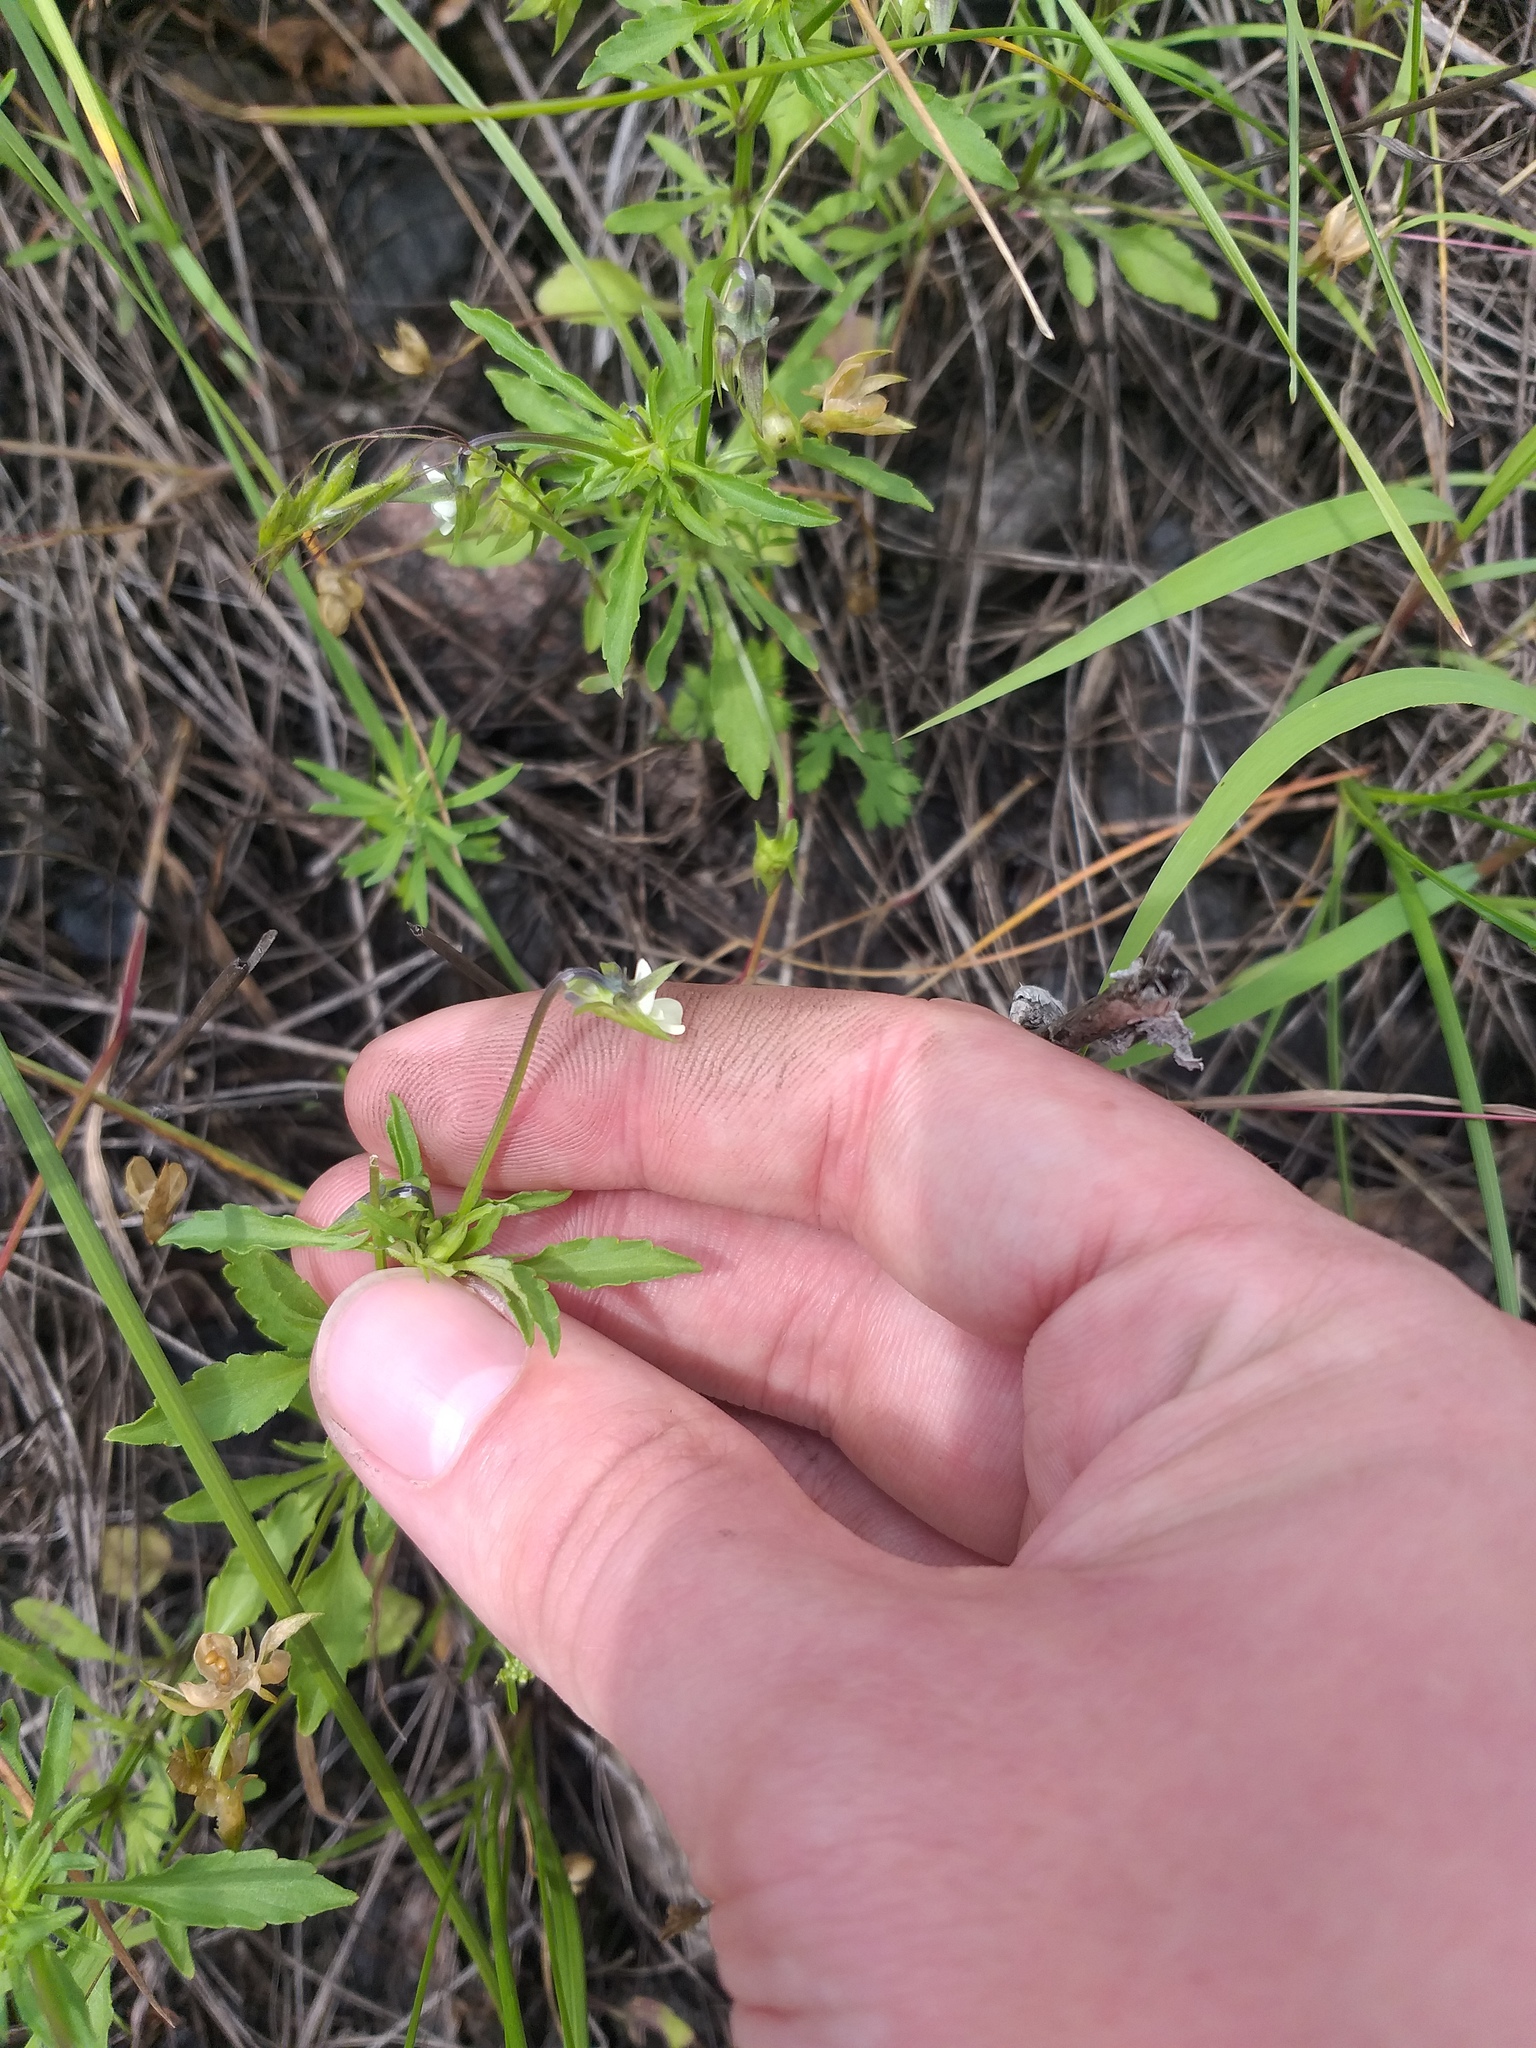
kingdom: Plantae
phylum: Tracheophyta
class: Magnoliopsida
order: Malpighiales
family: Violaceae
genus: Viola
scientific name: Viola arvensis
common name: Field pansy
